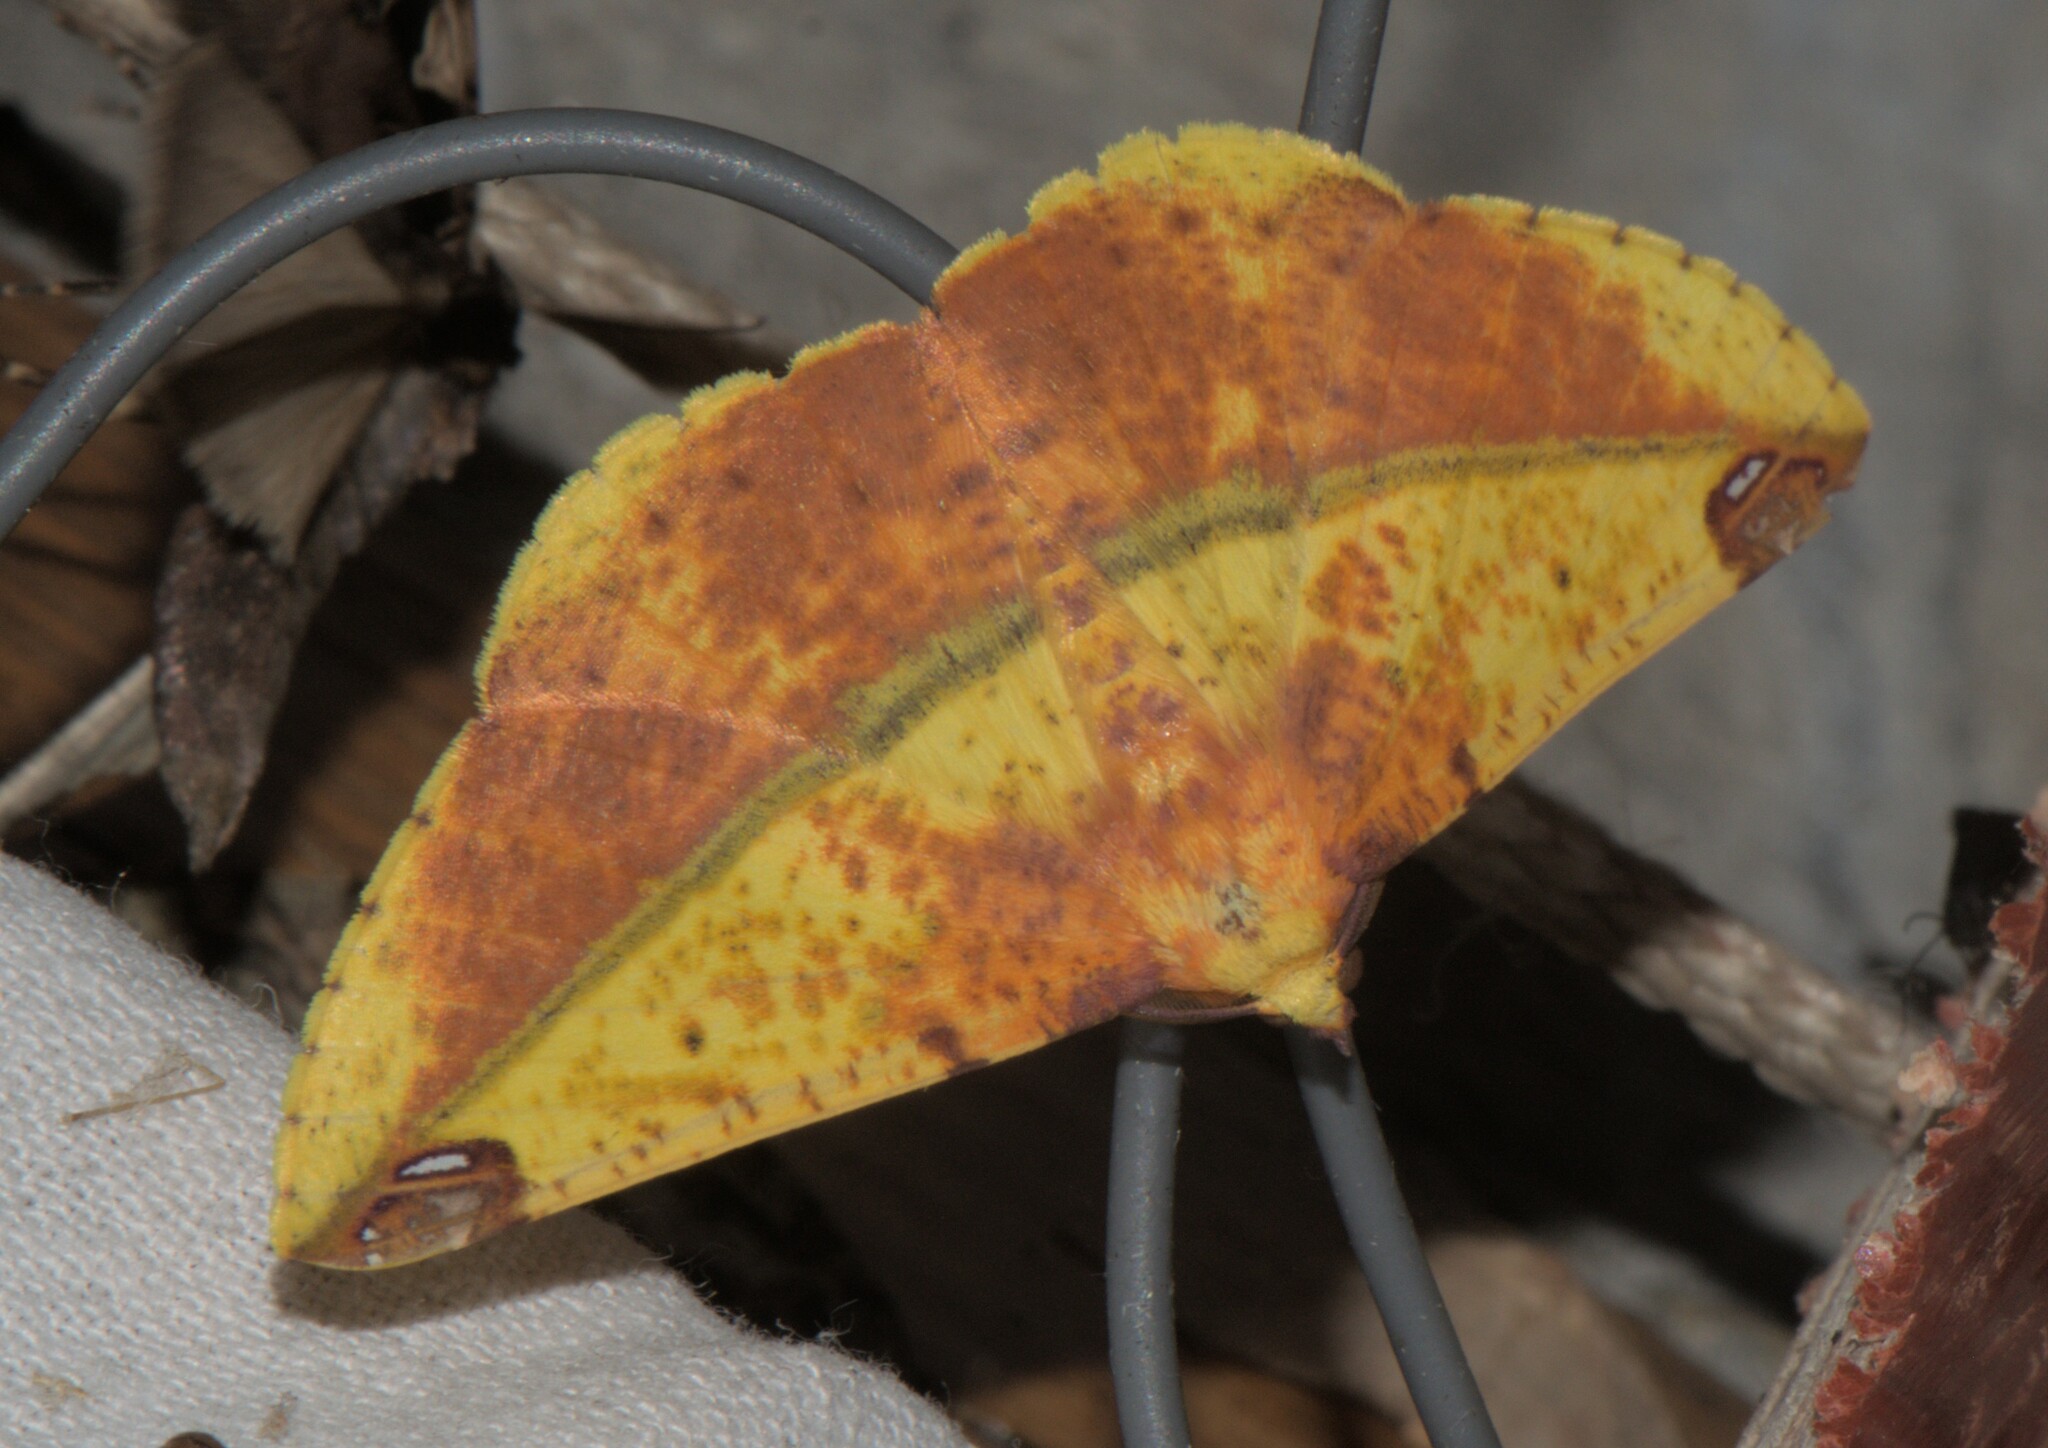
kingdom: Animalia
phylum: Arthropoda
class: Insecta
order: Lepidoptera
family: Geometridae
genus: Mimomiza
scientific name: Mimomiza cruentaria
